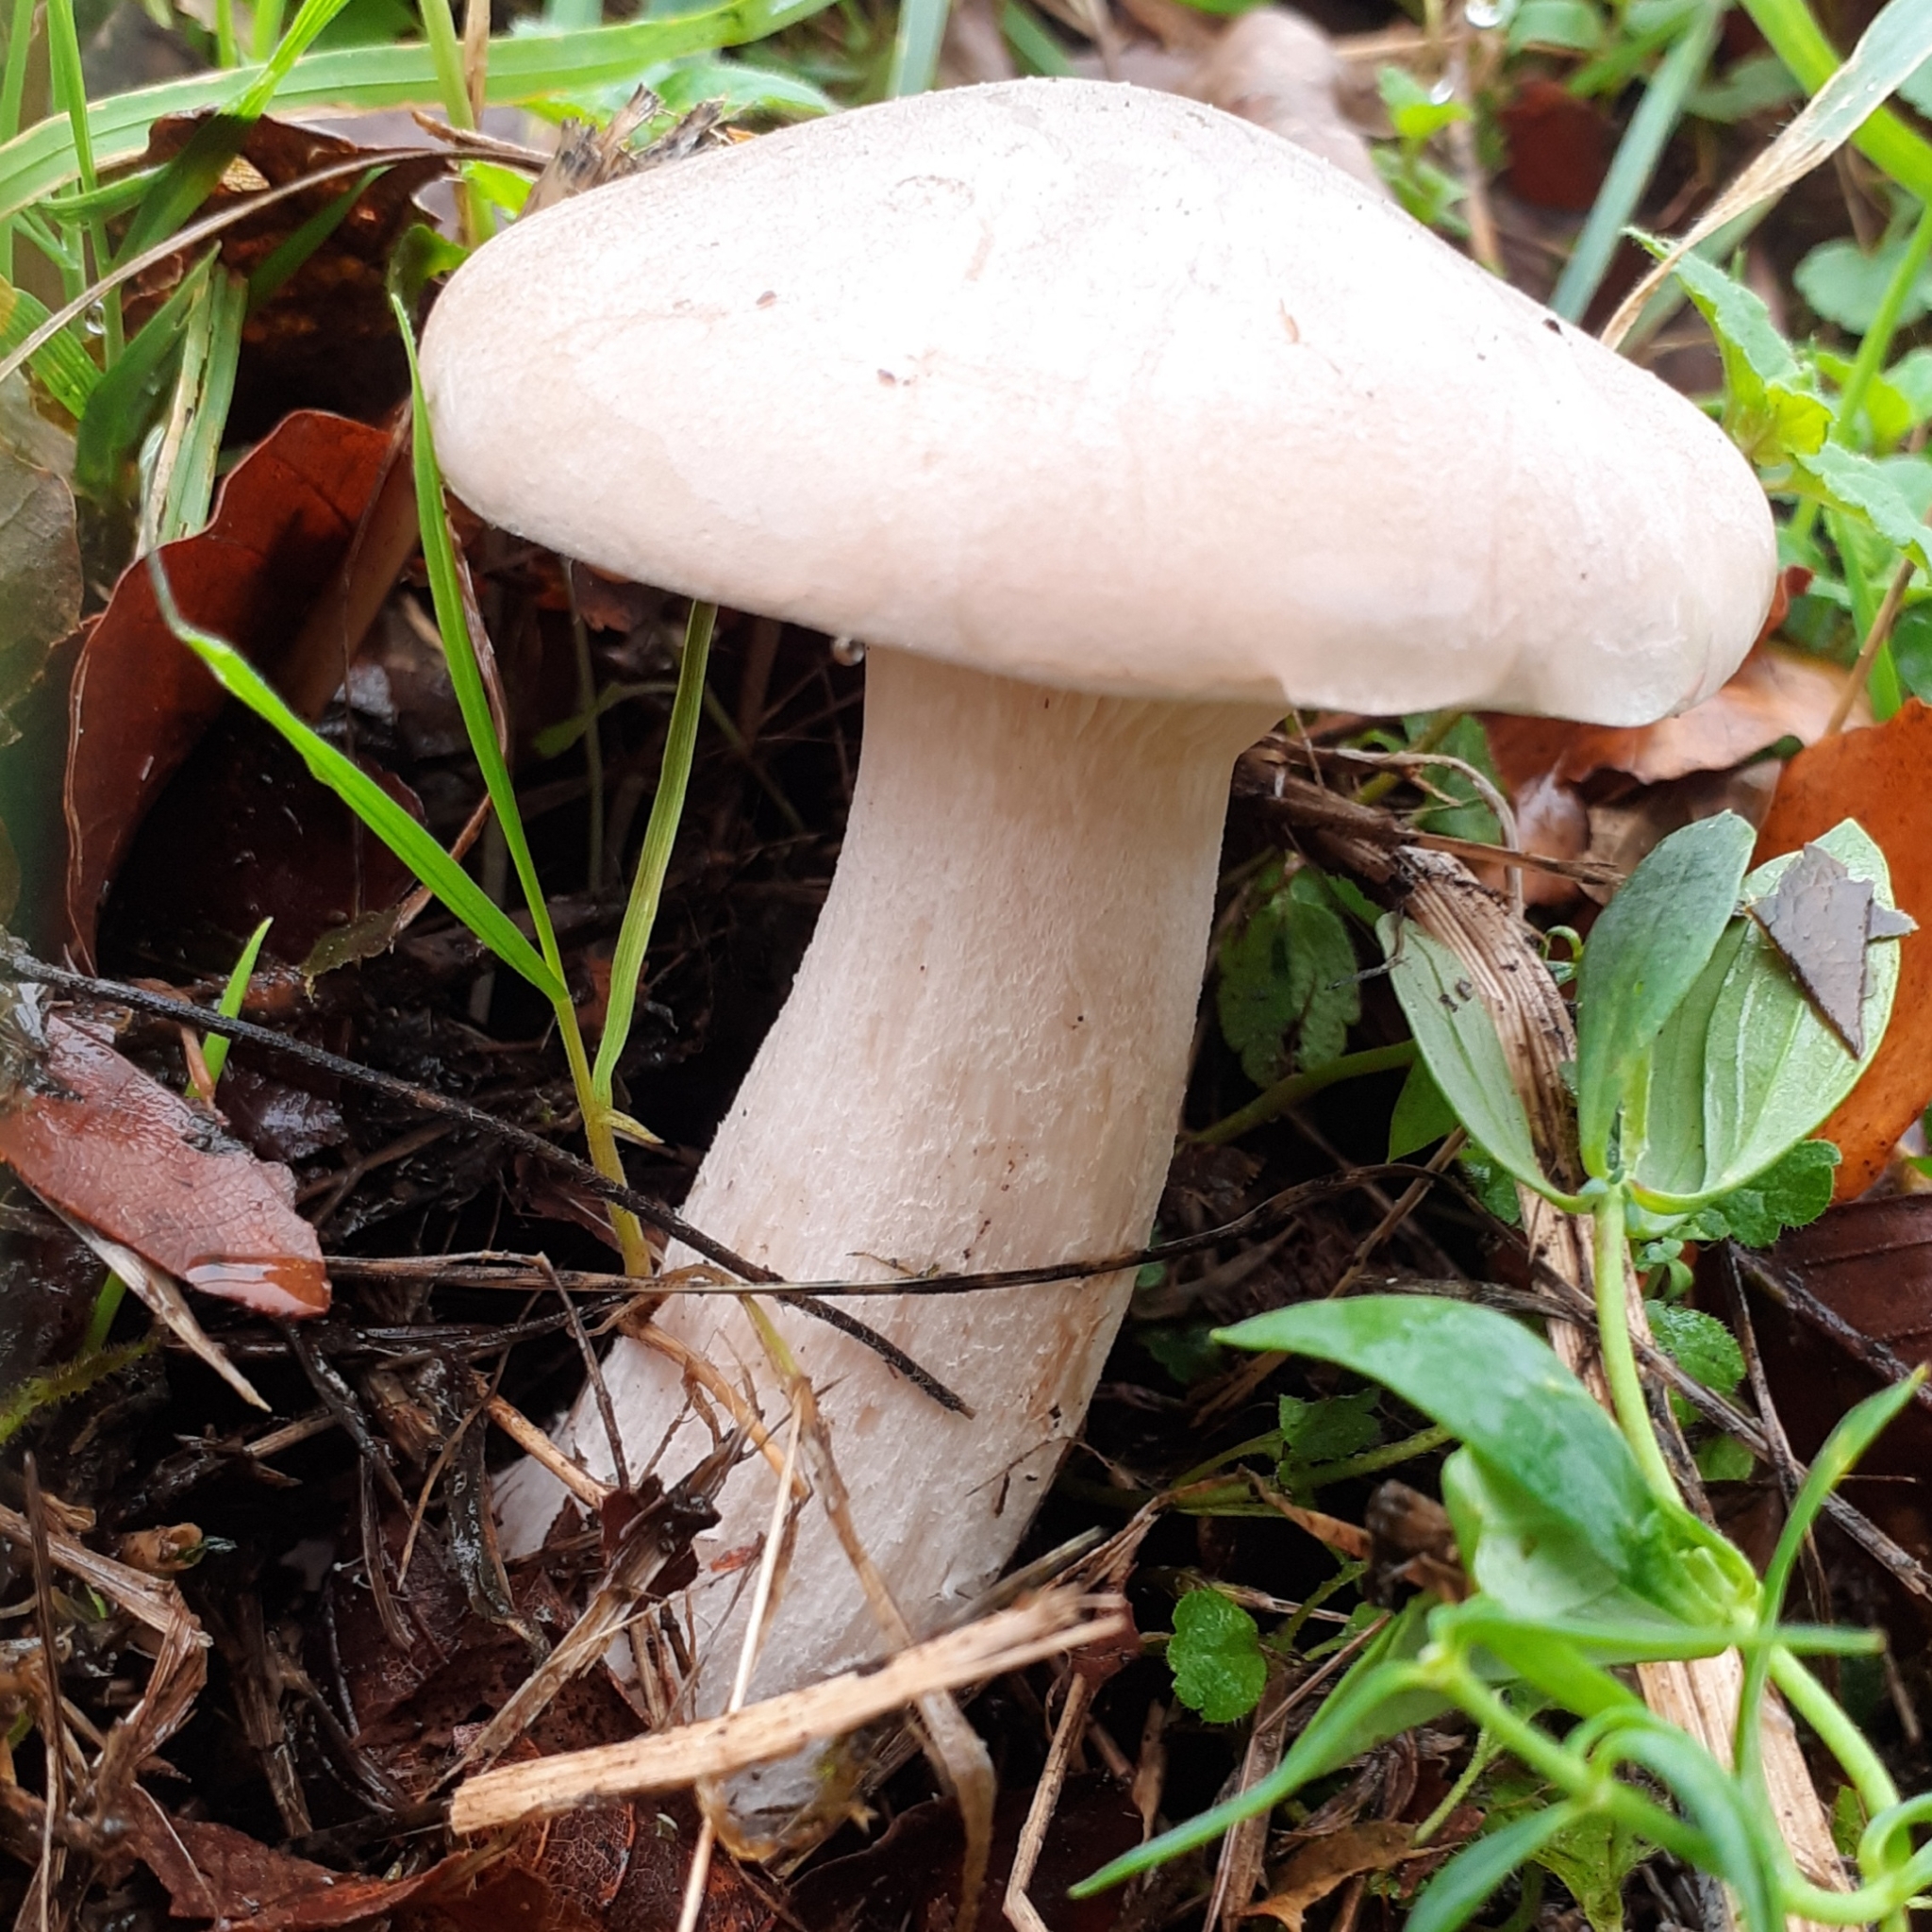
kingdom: Fungi
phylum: Basidiomycota
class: Agaricomycetes
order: Agaricales
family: Tricholomataceae
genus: Clitocybe
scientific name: Clitocybe nebularis
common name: Clouded agaric
